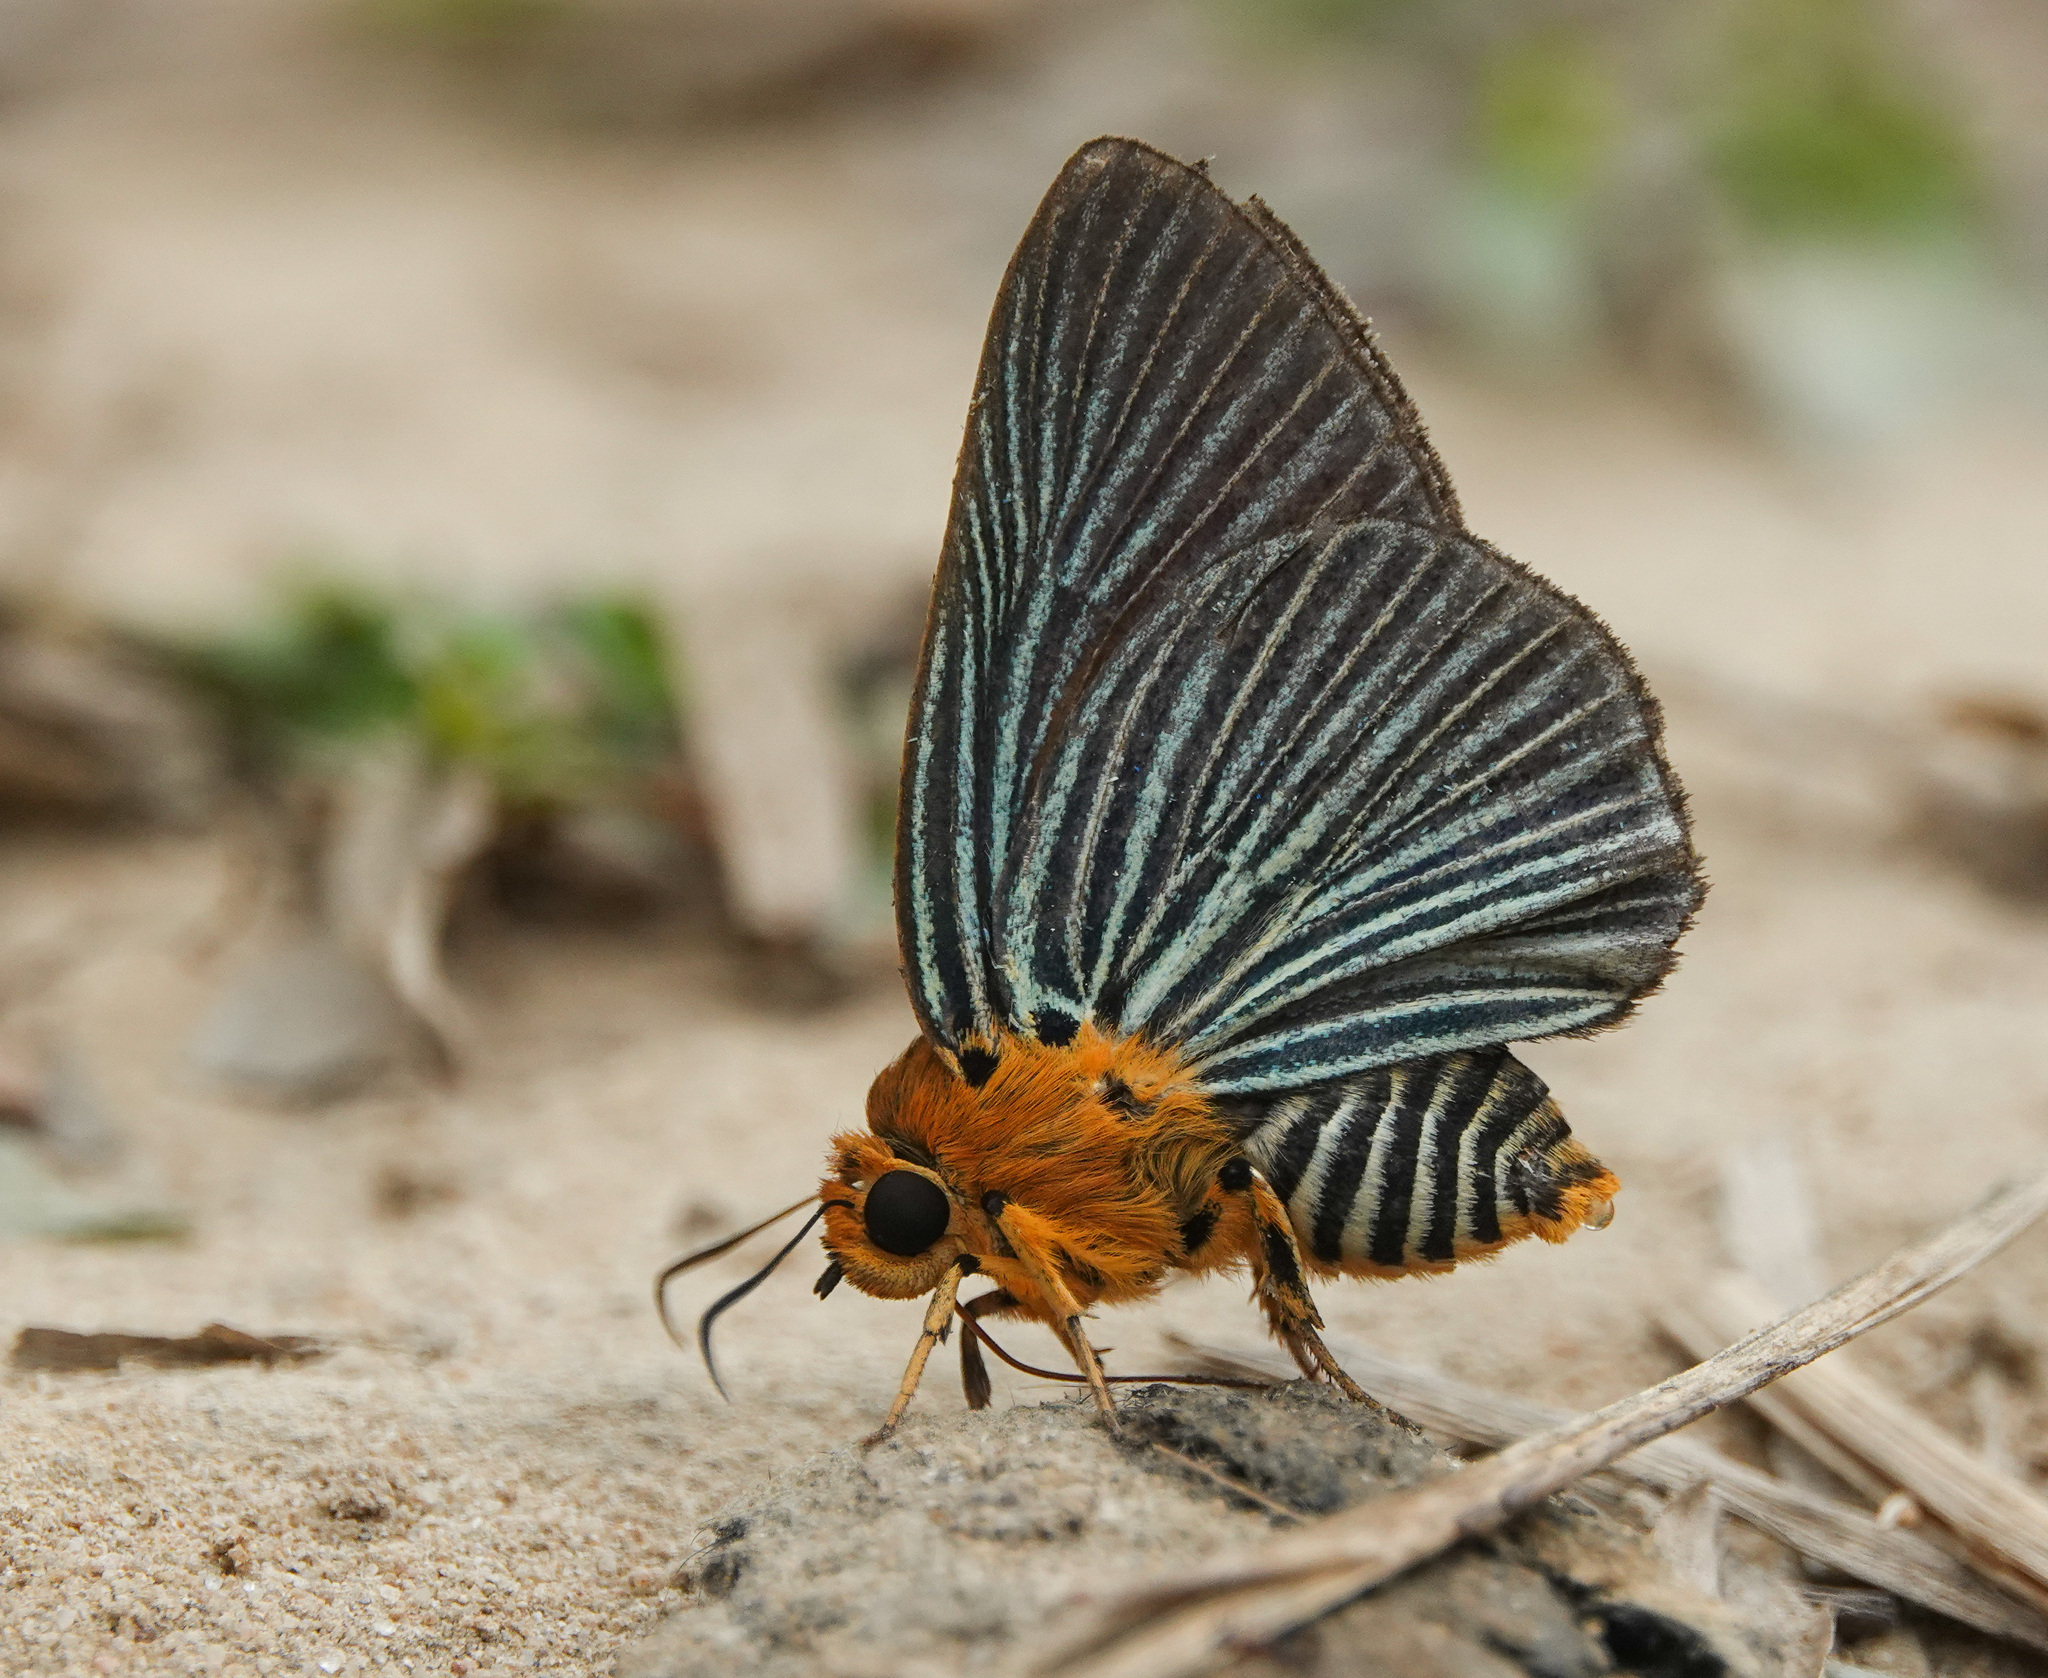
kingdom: Animalia
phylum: Arthropoda
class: Insecta
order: Lepidoptera
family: Hesperiidae
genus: Bibasis
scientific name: Bibasis amara
